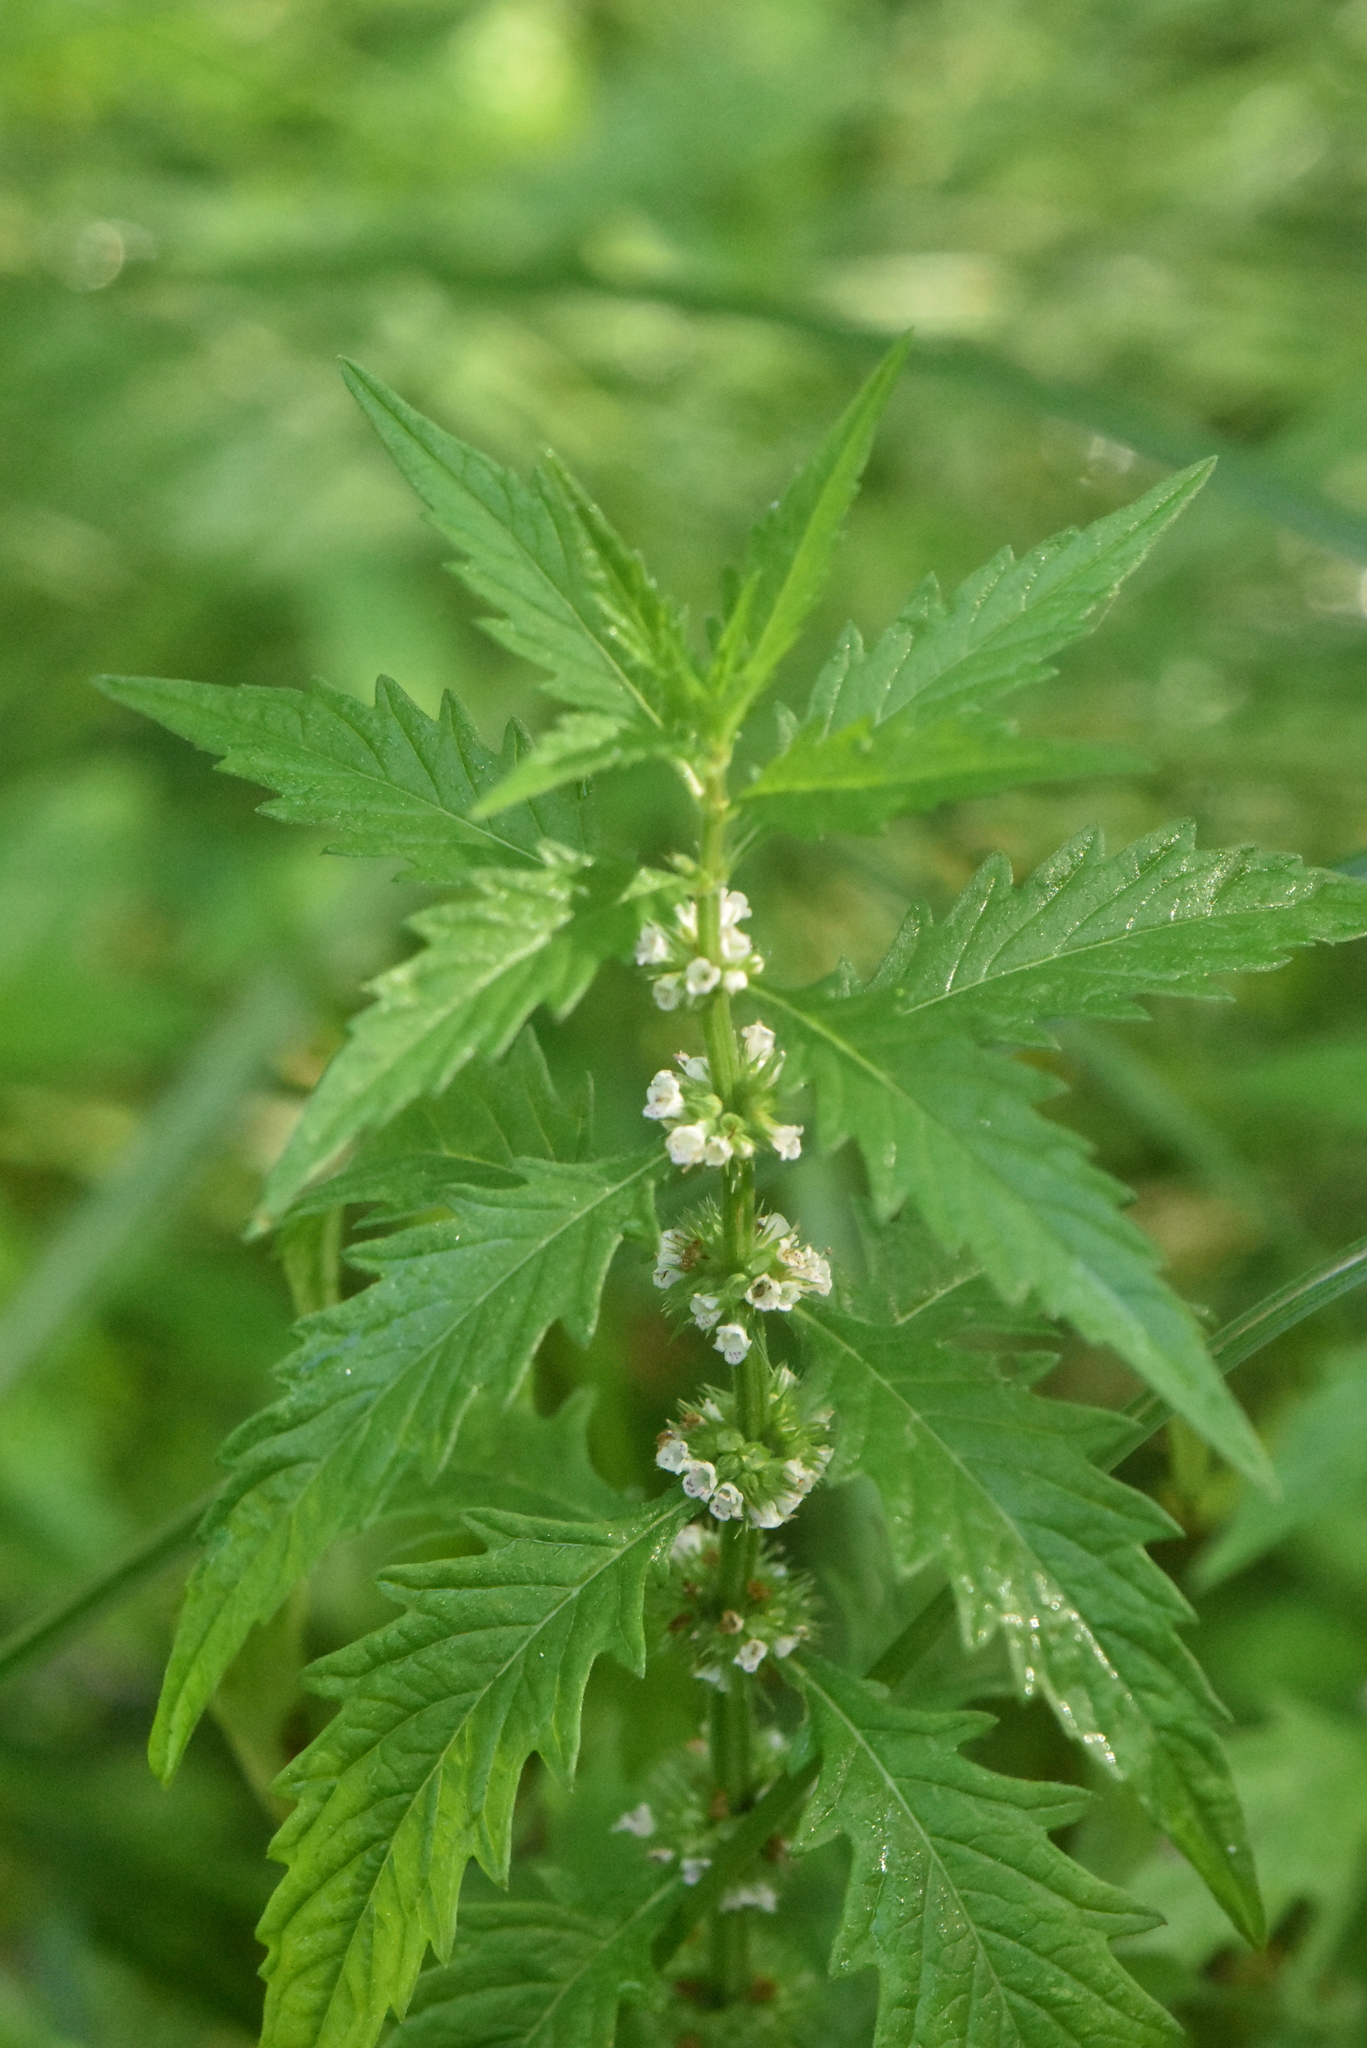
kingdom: Plantae
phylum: Tracheophyta
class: Magnoliopsida
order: Lamiales
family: Lamiaceae
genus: Lycopus
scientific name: Lycopus europaeus
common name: European bugleweed
